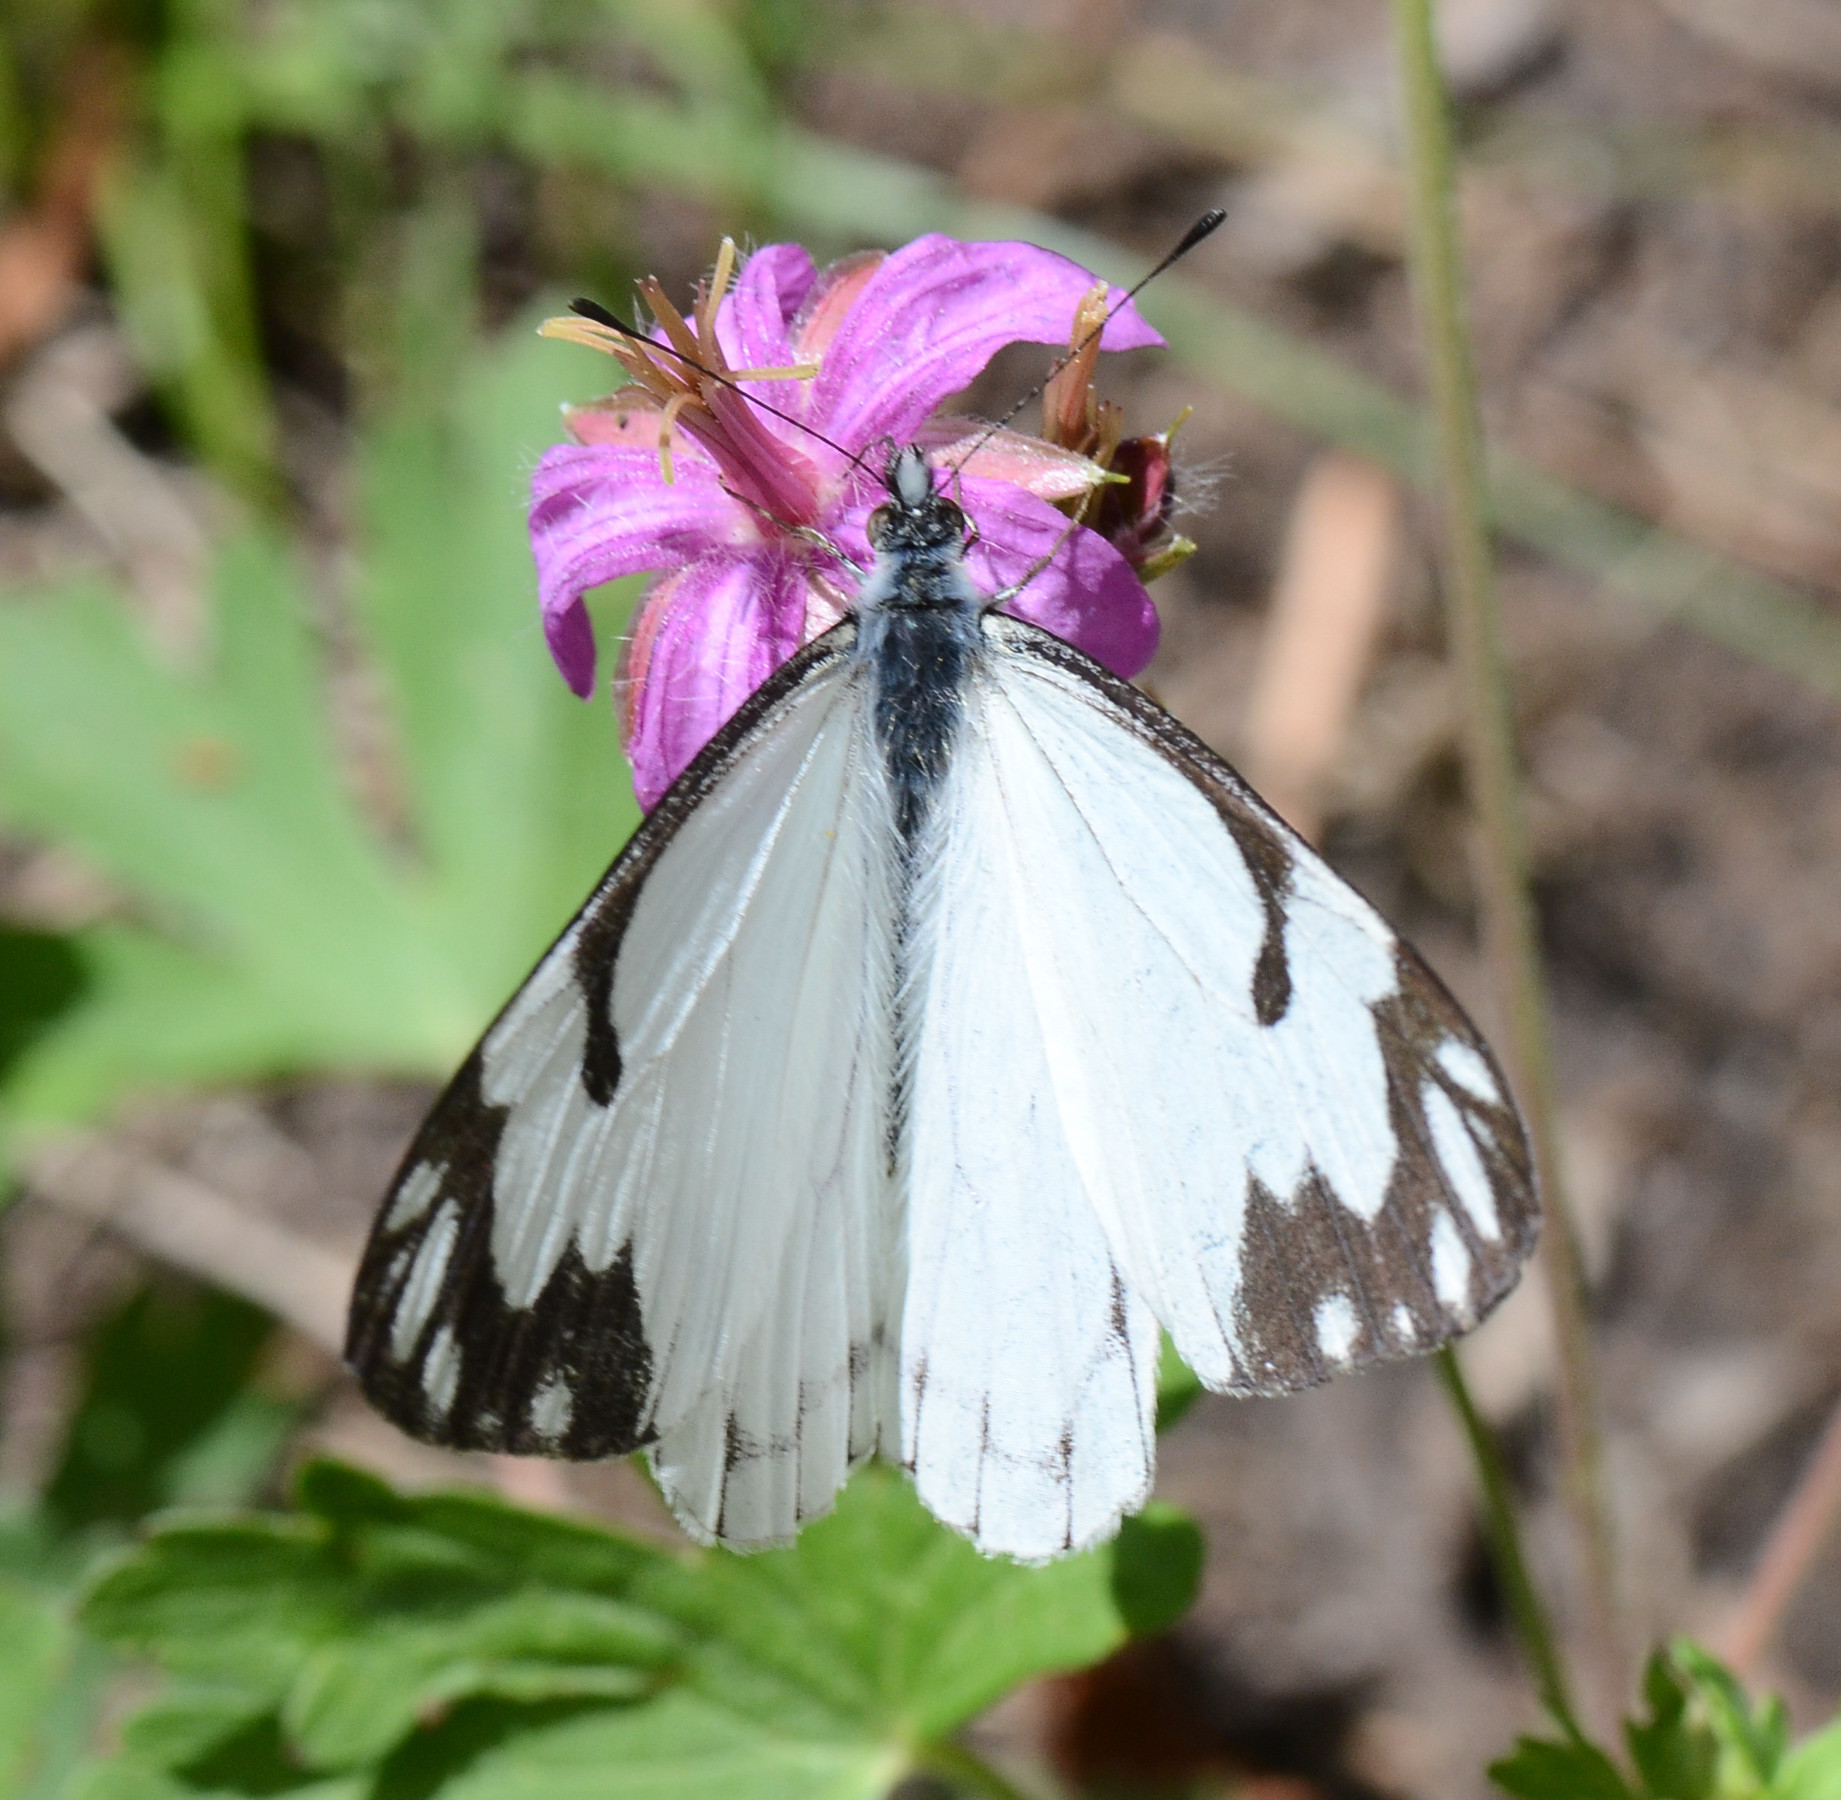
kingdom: Animalia
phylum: Arthropoda
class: Insecta
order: Lepidoptera
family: Pieridae
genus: Neophasia
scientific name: Neophasia menapia
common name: Pine white
